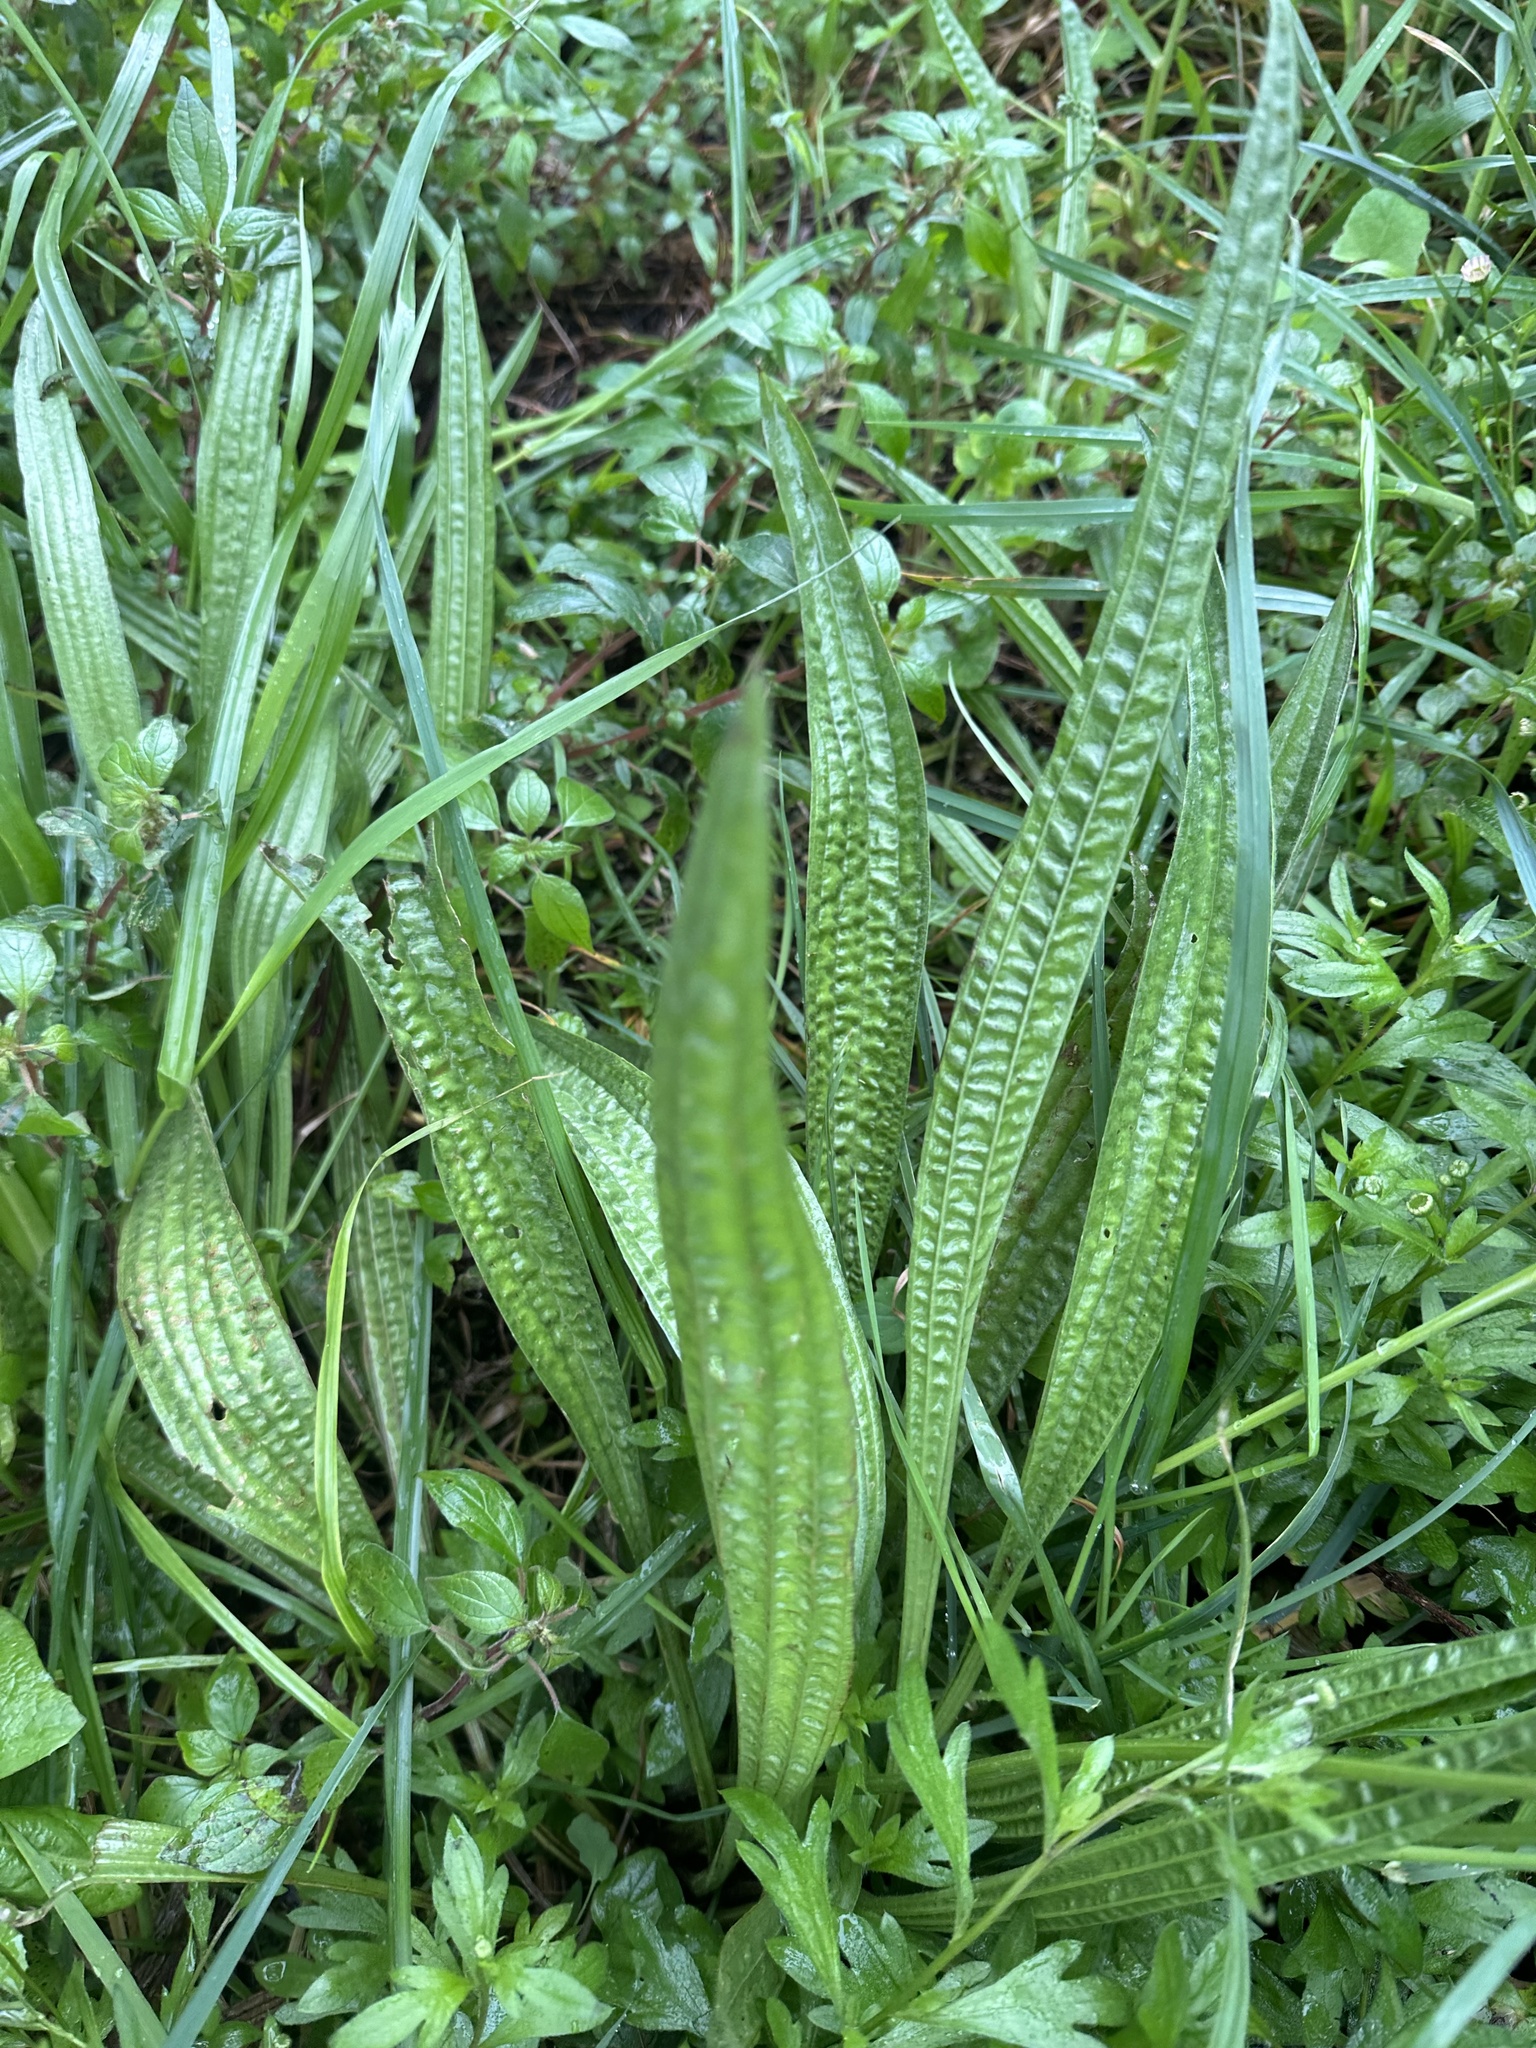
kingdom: Plantae
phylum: Tracheophyta
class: Magnoliopsida
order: Lamiales
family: Plantaginaceae
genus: Plantago
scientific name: Plantago lanceolata
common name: Ribwort plantain
